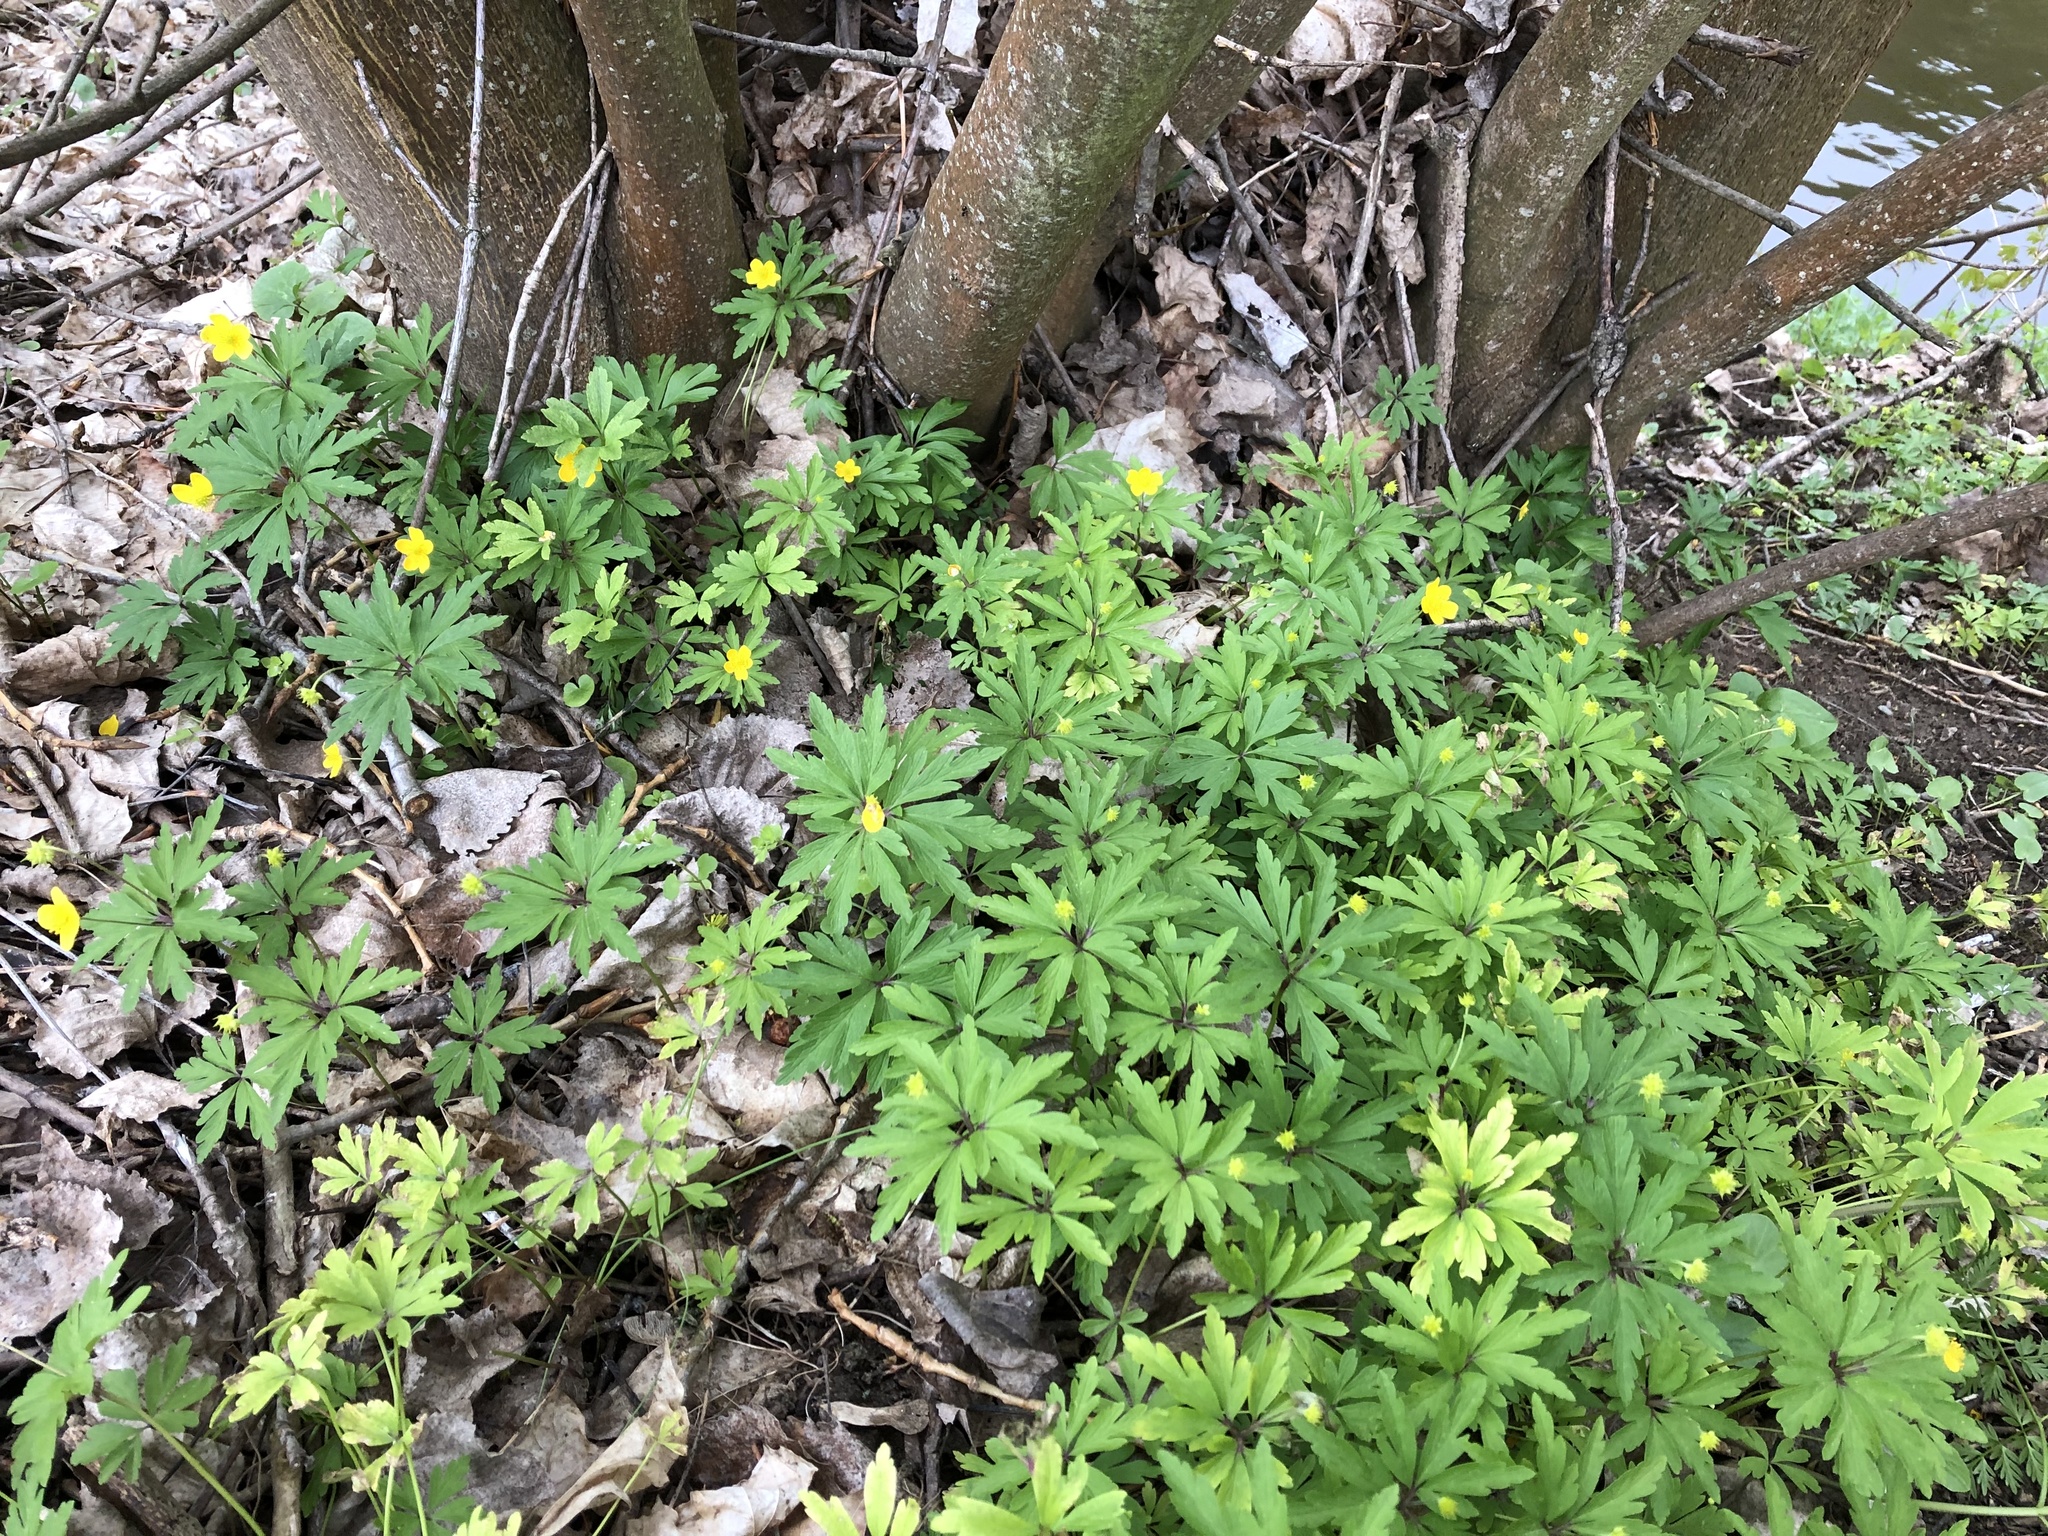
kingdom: Plantae
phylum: Tracheophyta
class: Magnoliopsida
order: Ranunculales
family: Ranunculaceae
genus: Anemone
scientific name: Anemone ranunculoides
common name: Yellow anemone
